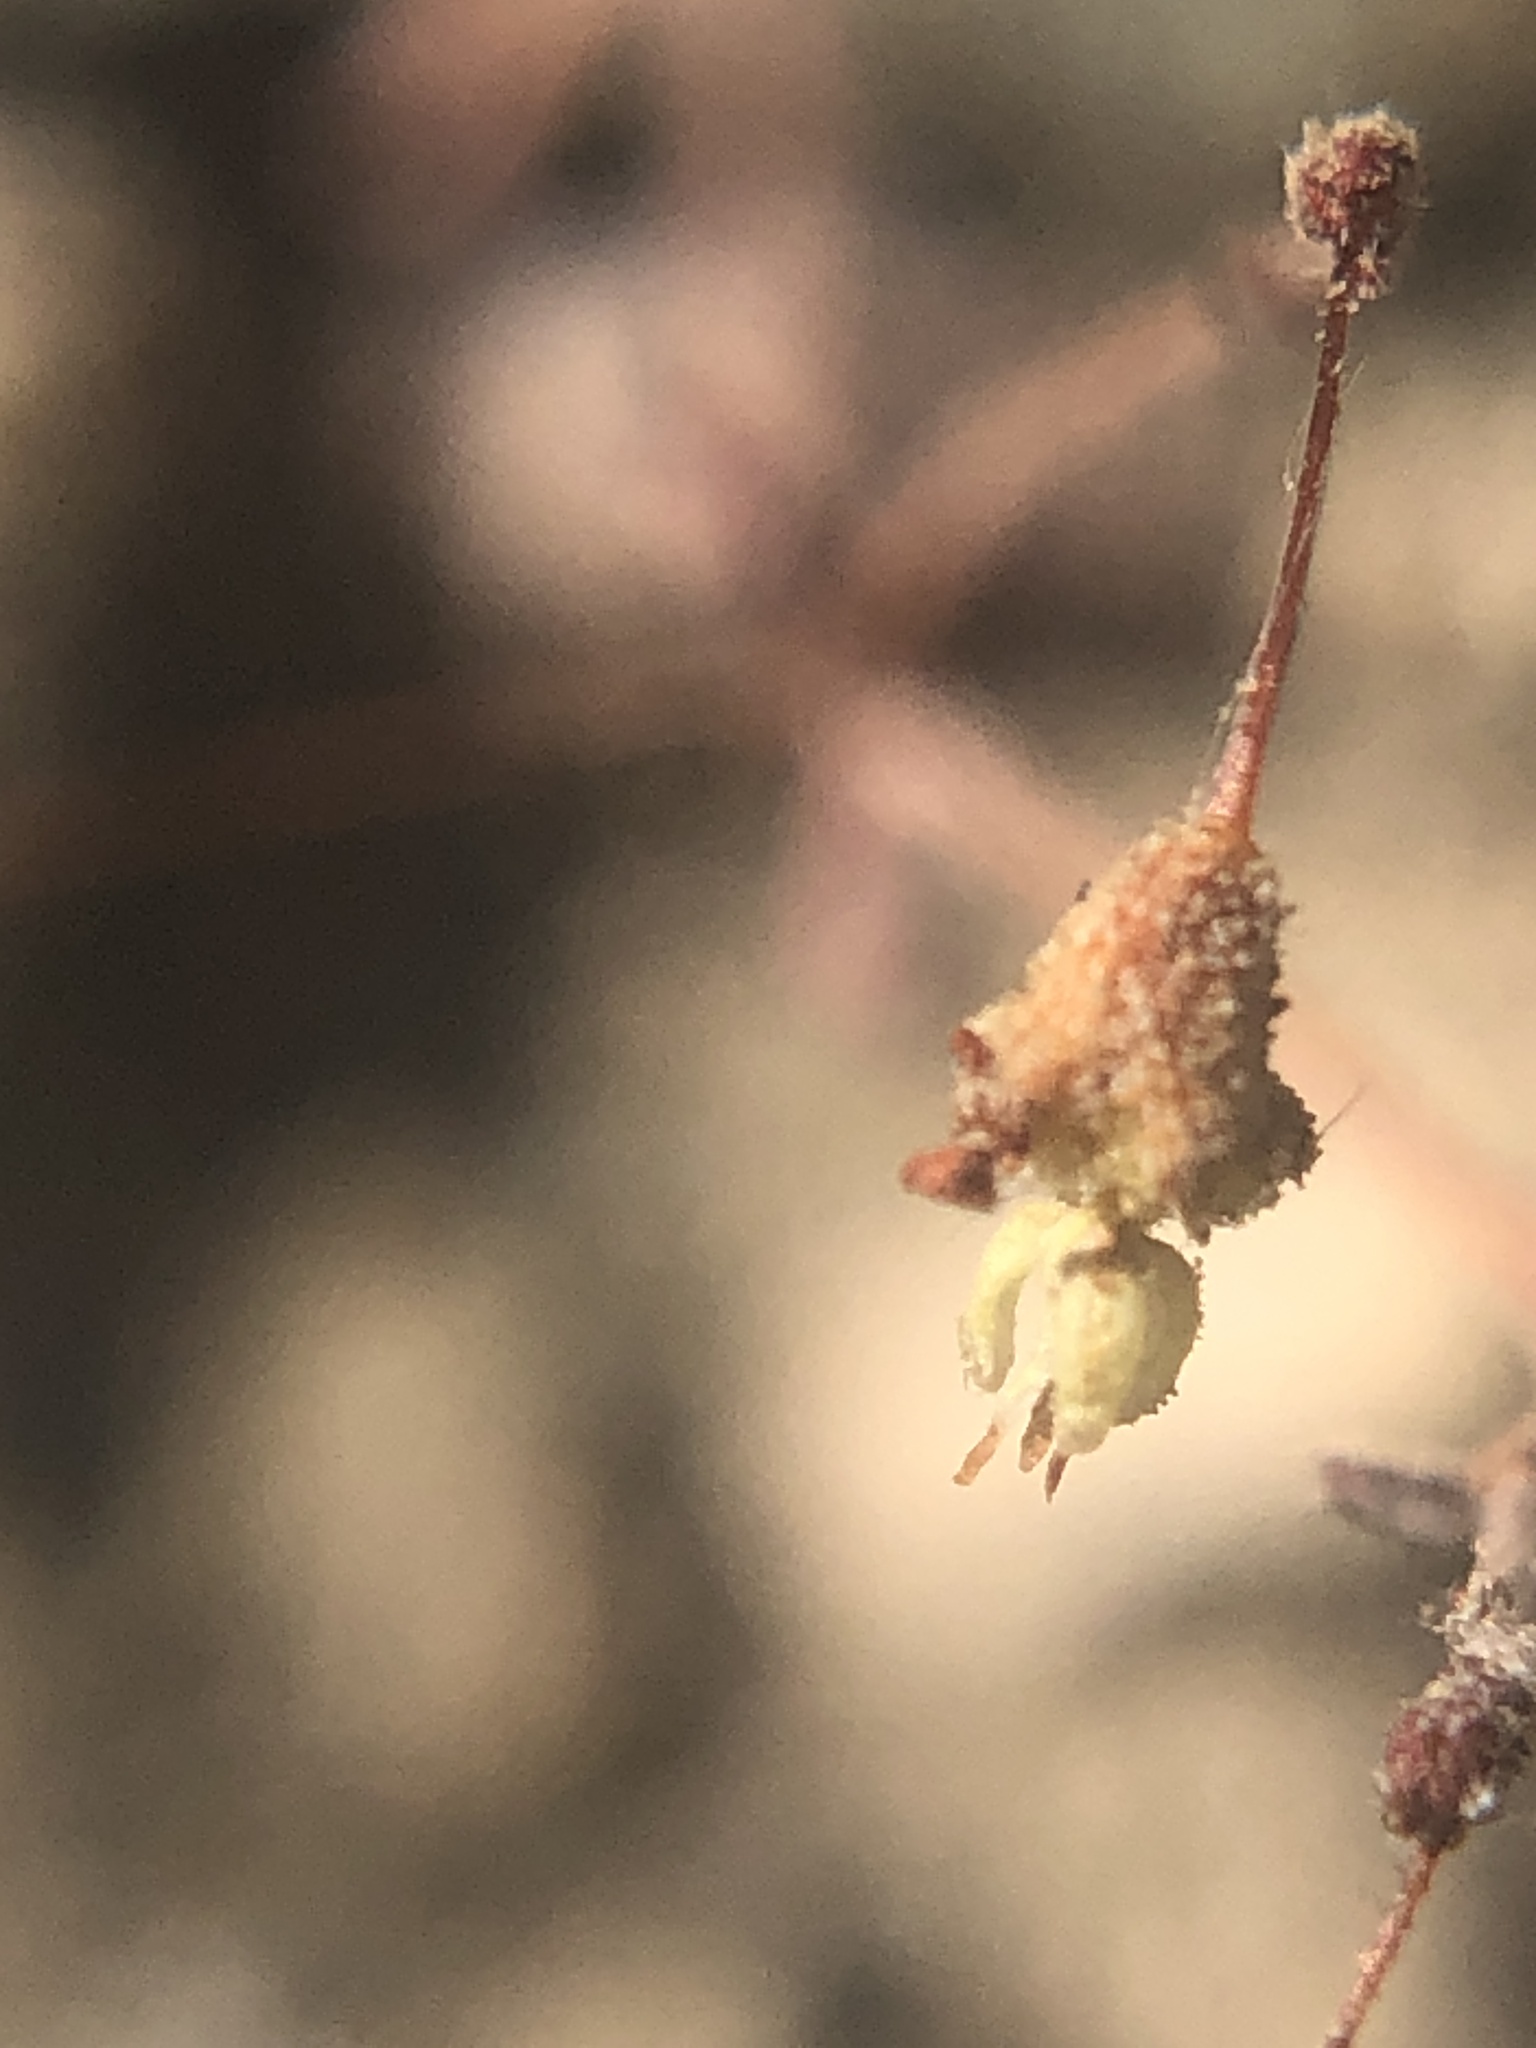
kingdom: Plantae
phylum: Tracheophyta
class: Magnoliopsida
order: Caryophyllales
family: Polygonaceae
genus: Eriogonum
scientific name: Eriogonum maculatum
